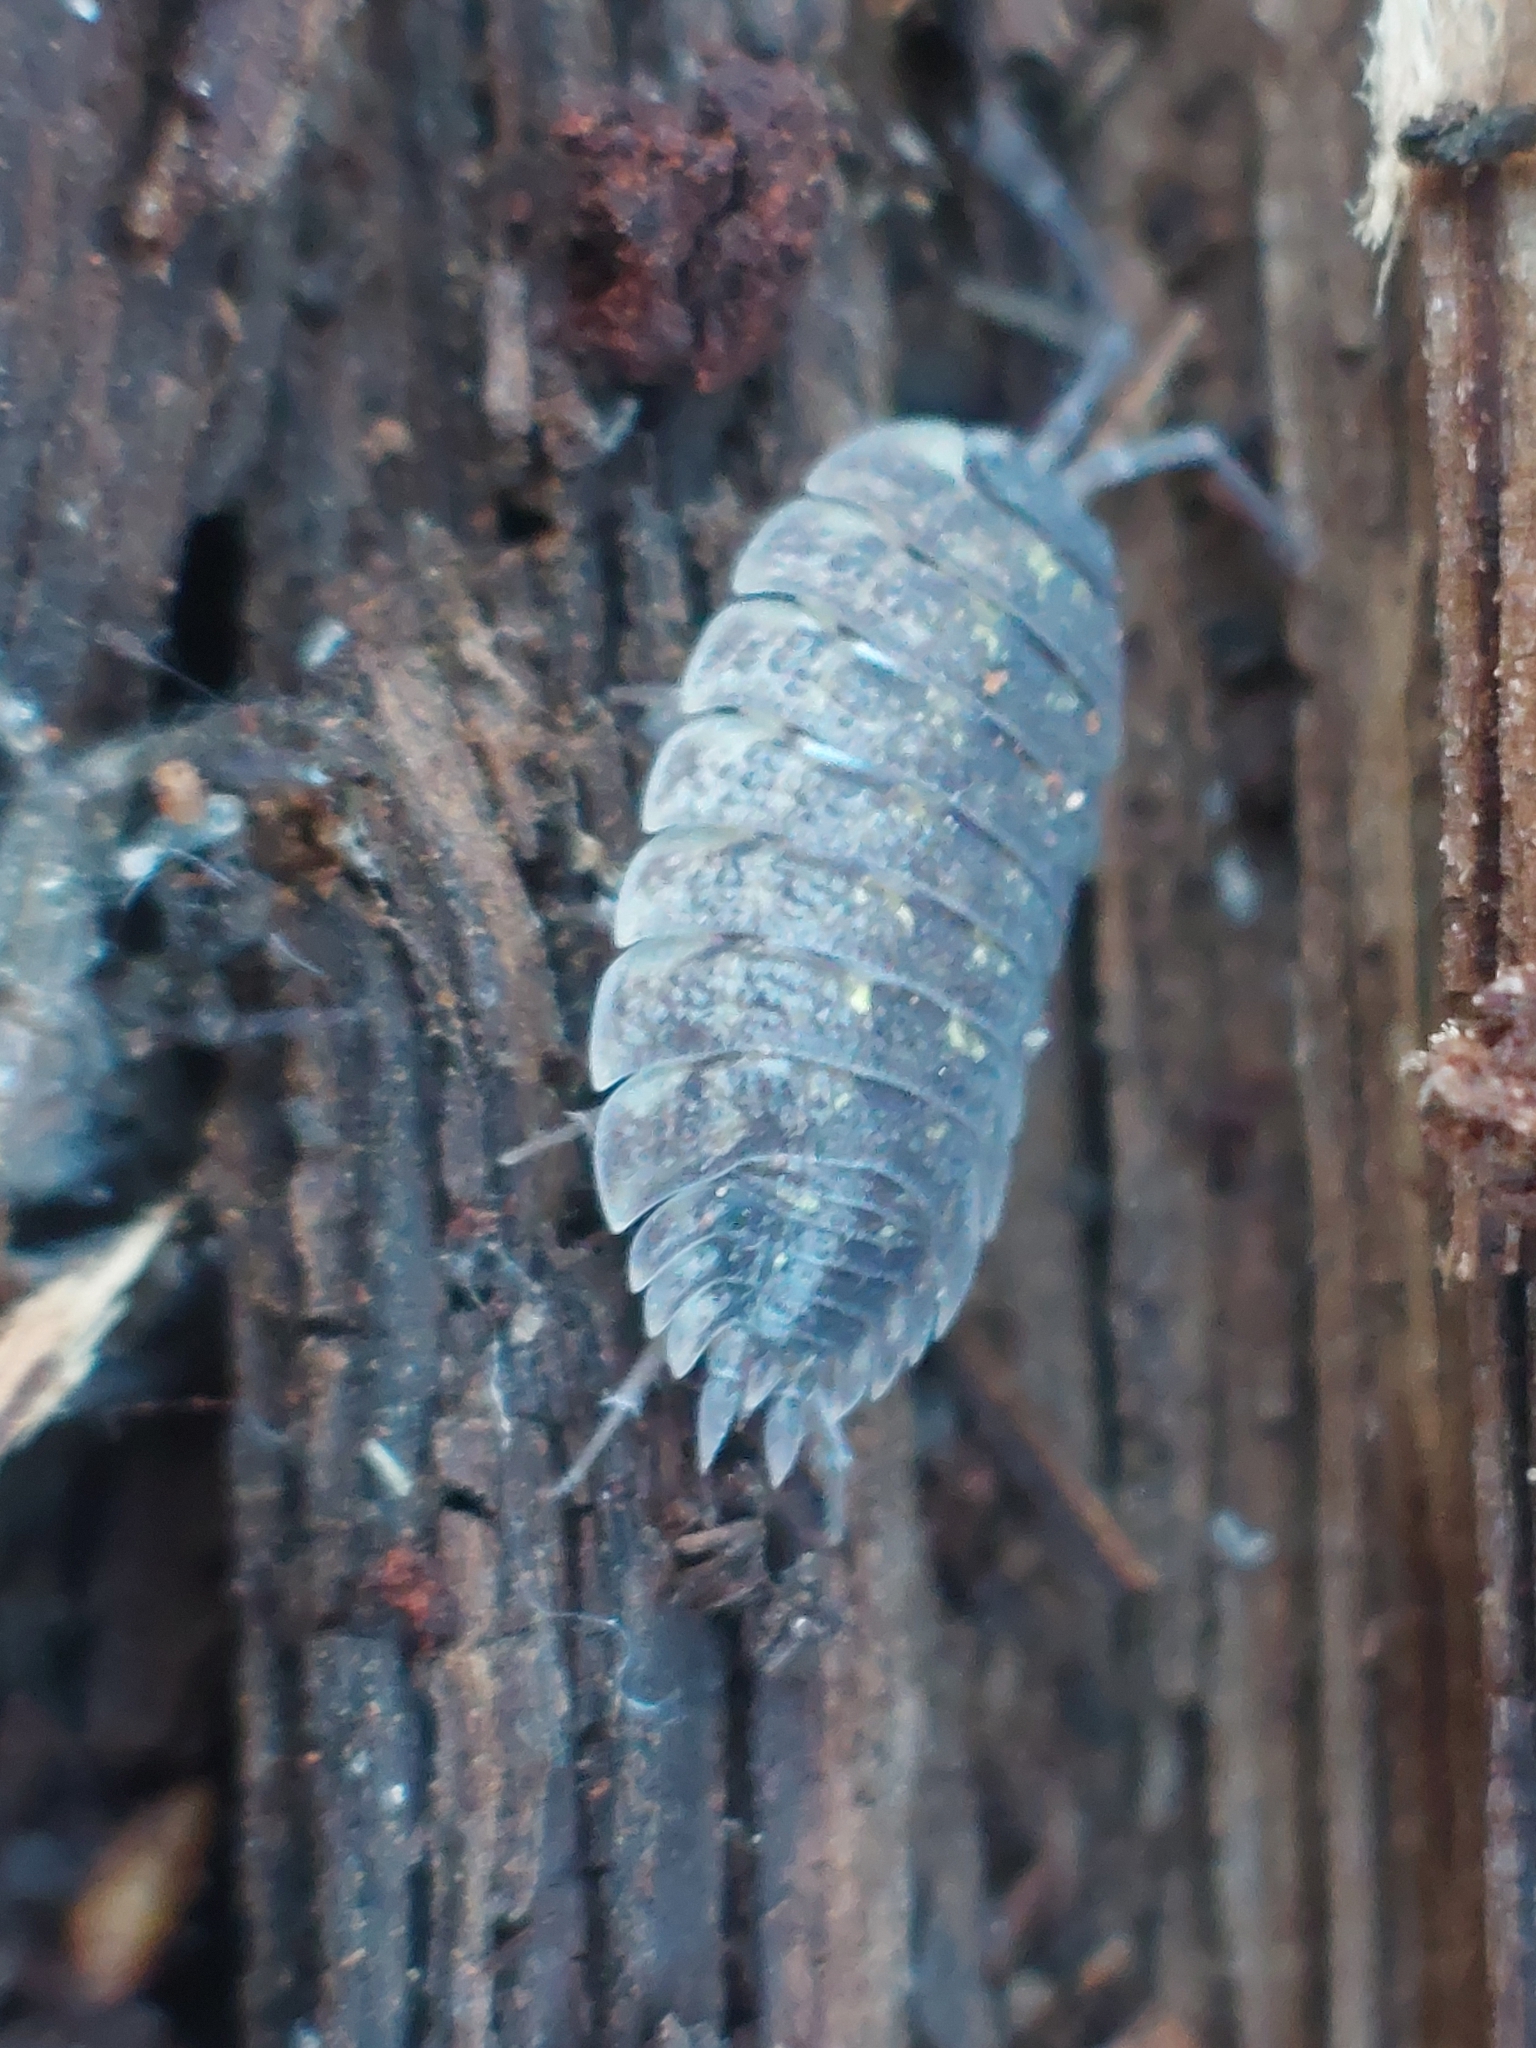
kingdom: Animalia
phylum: Arthropoda
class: Malacostraca
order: Isopoda
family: Porcellionidae
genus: Porcellio
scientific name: Porcellio spinicornis
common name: Painted woodlouse
